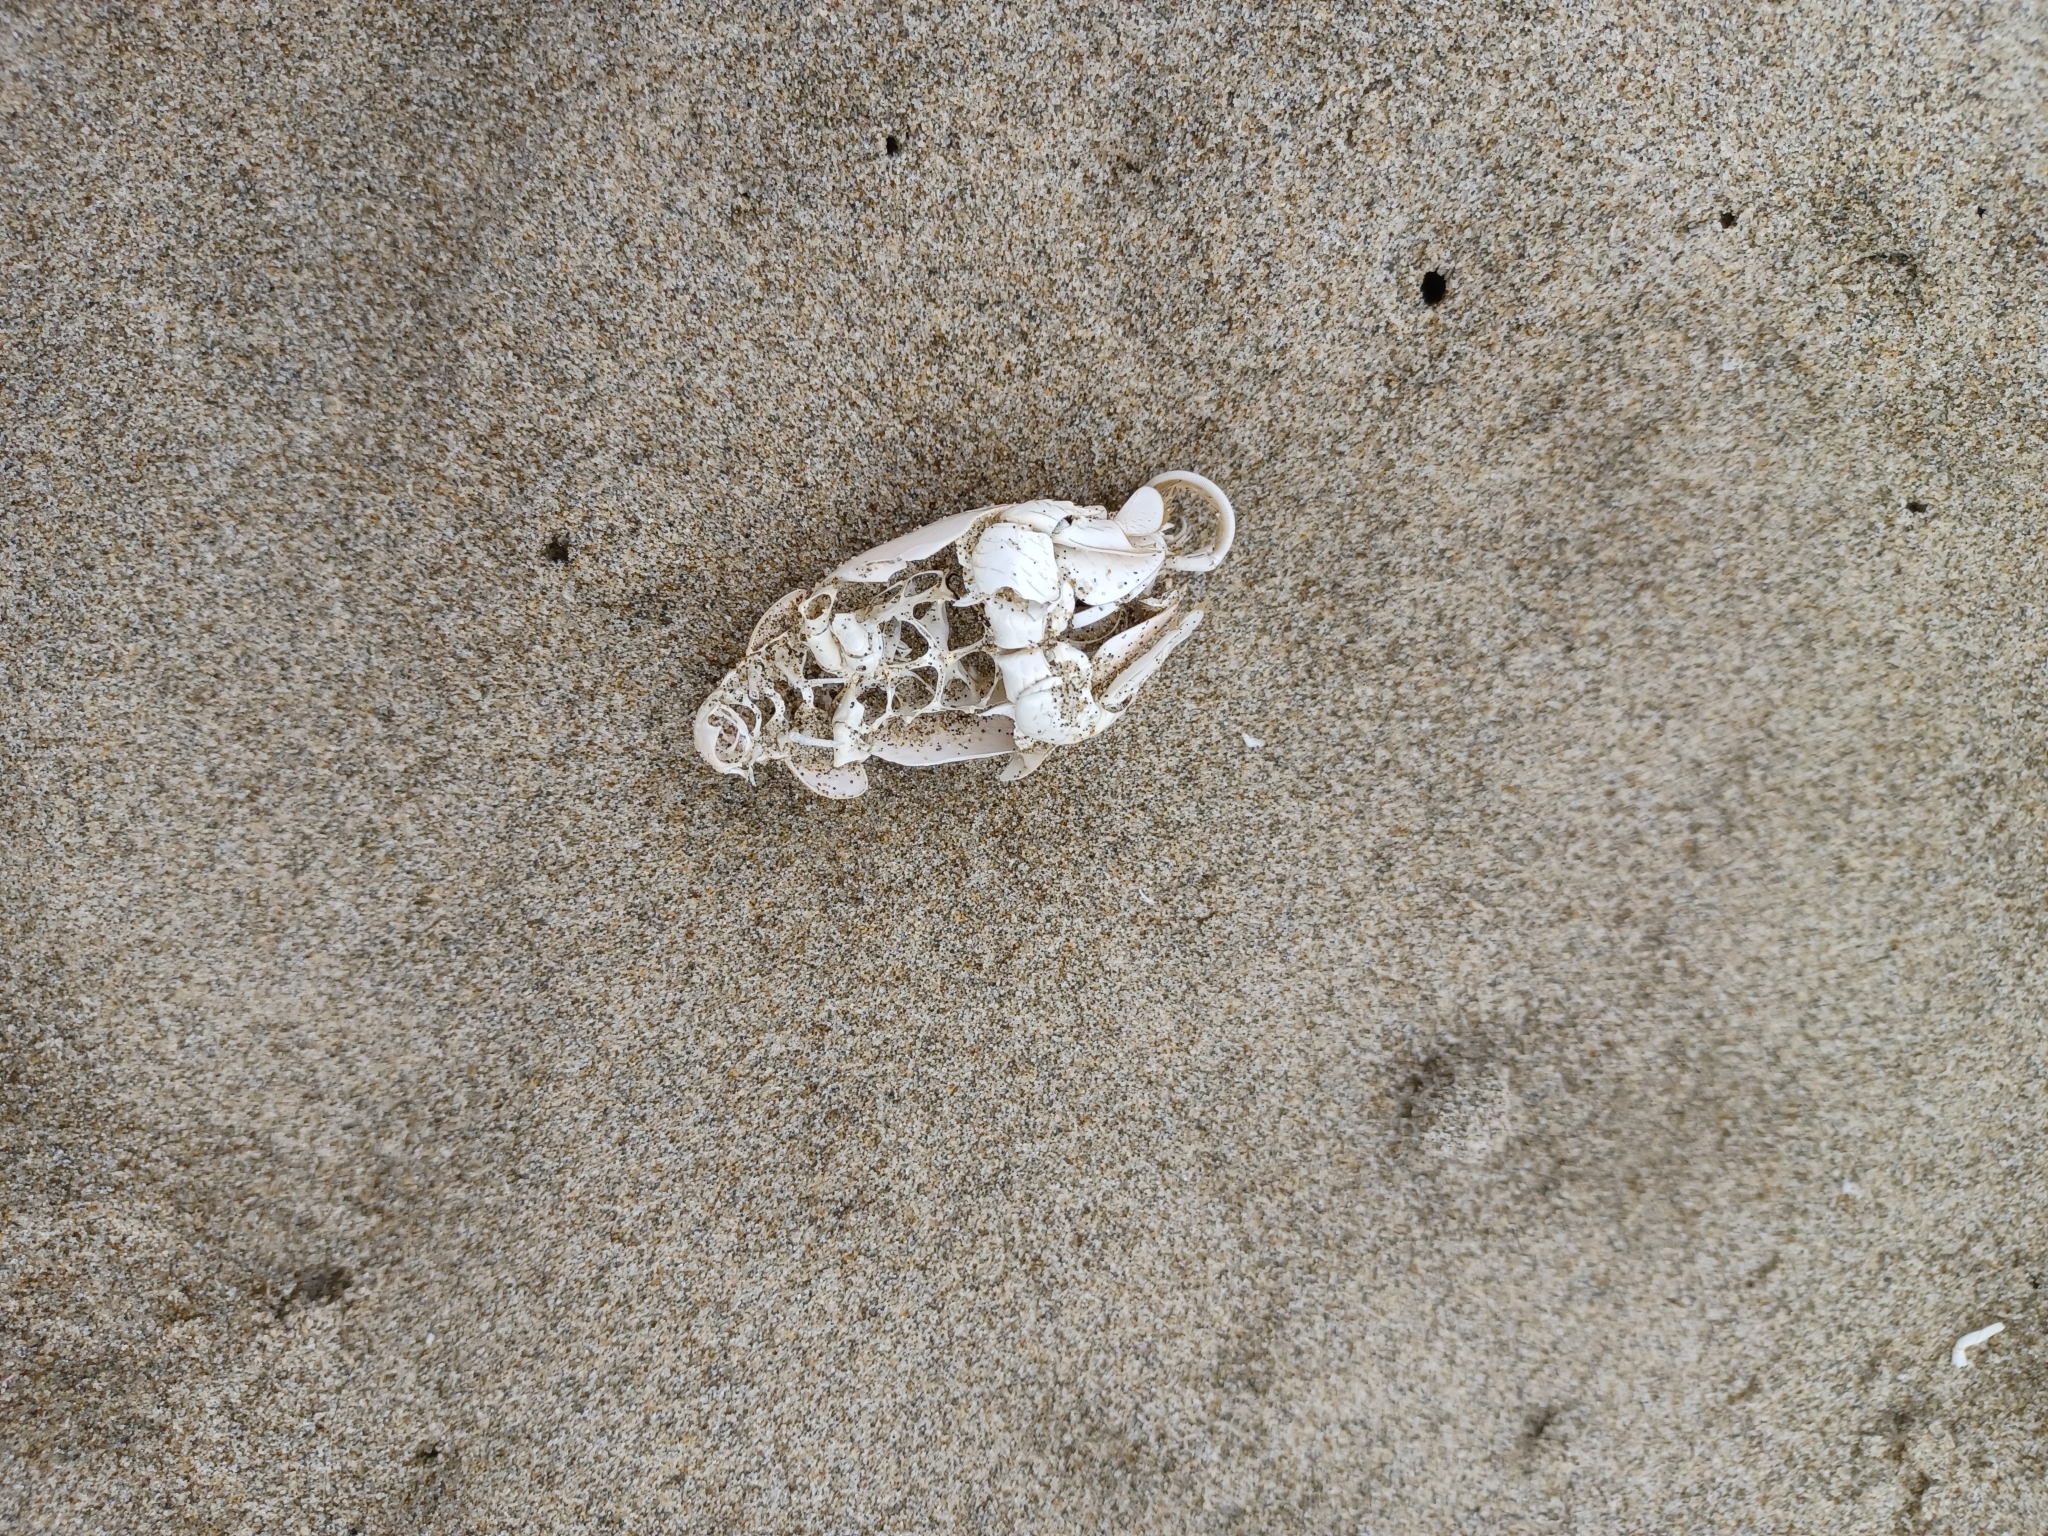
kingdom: Animalia
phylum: Arthropoda
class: Malacostraca
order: Decapoda
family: Hippidae
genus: Emerita
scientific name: Emerita analoga
